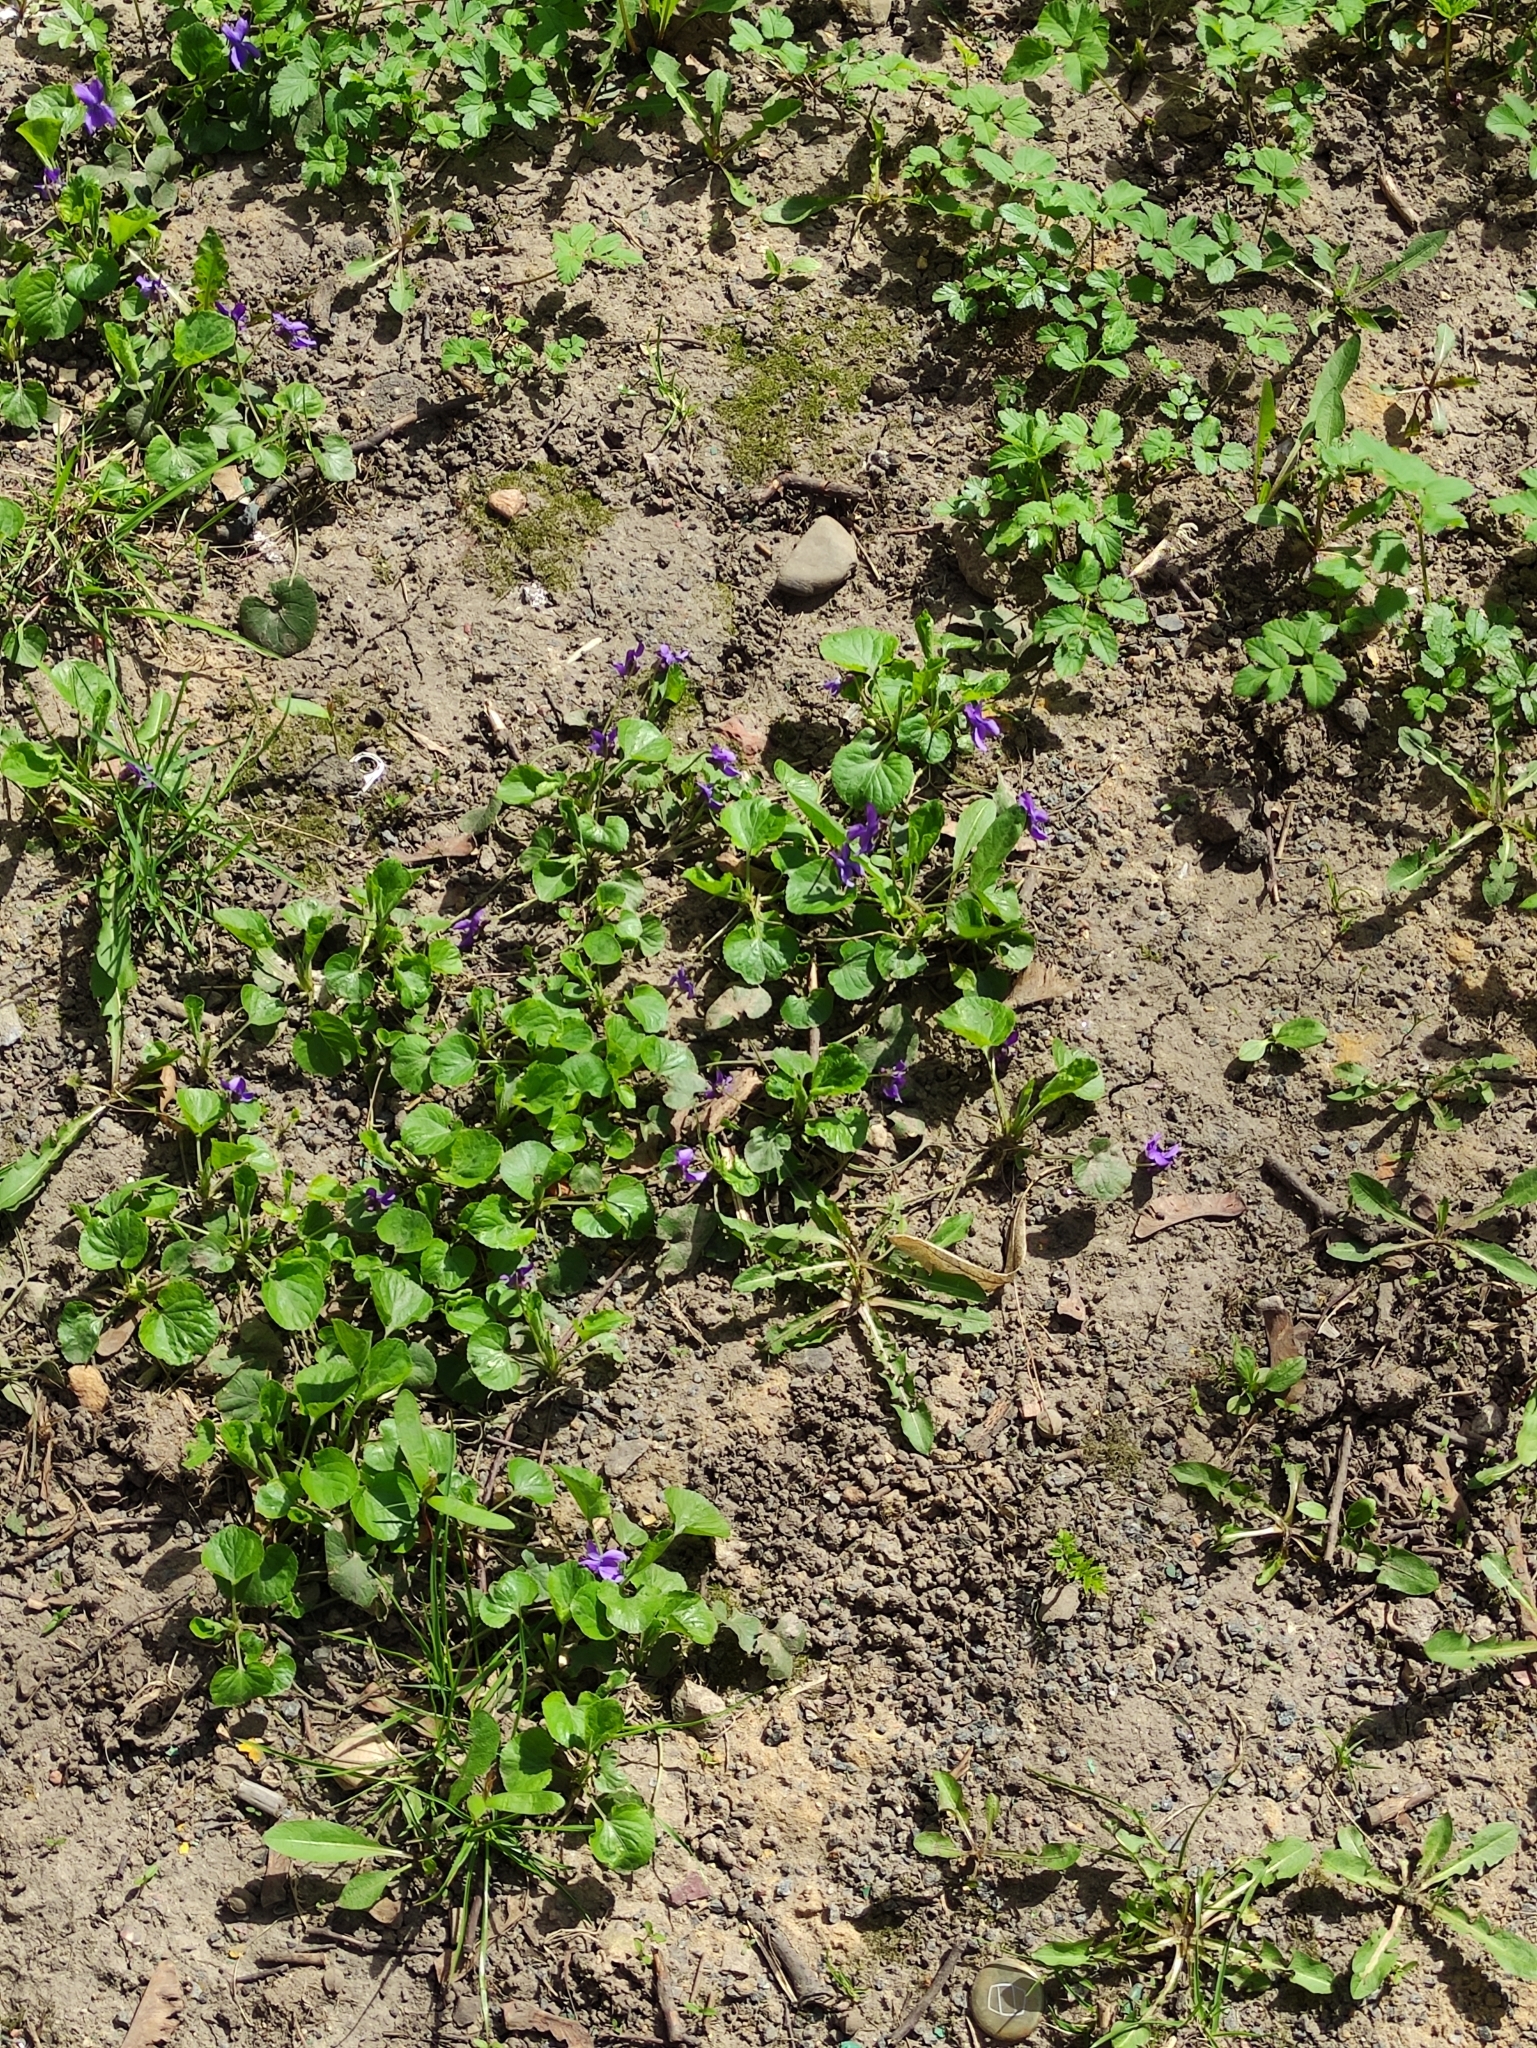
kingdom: Plantae
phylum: Tracheophyta
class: Magnoliopsida
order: Malpighiales
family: Violaceae
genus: Viola
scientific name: Viola odorata
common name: Sweet violet
